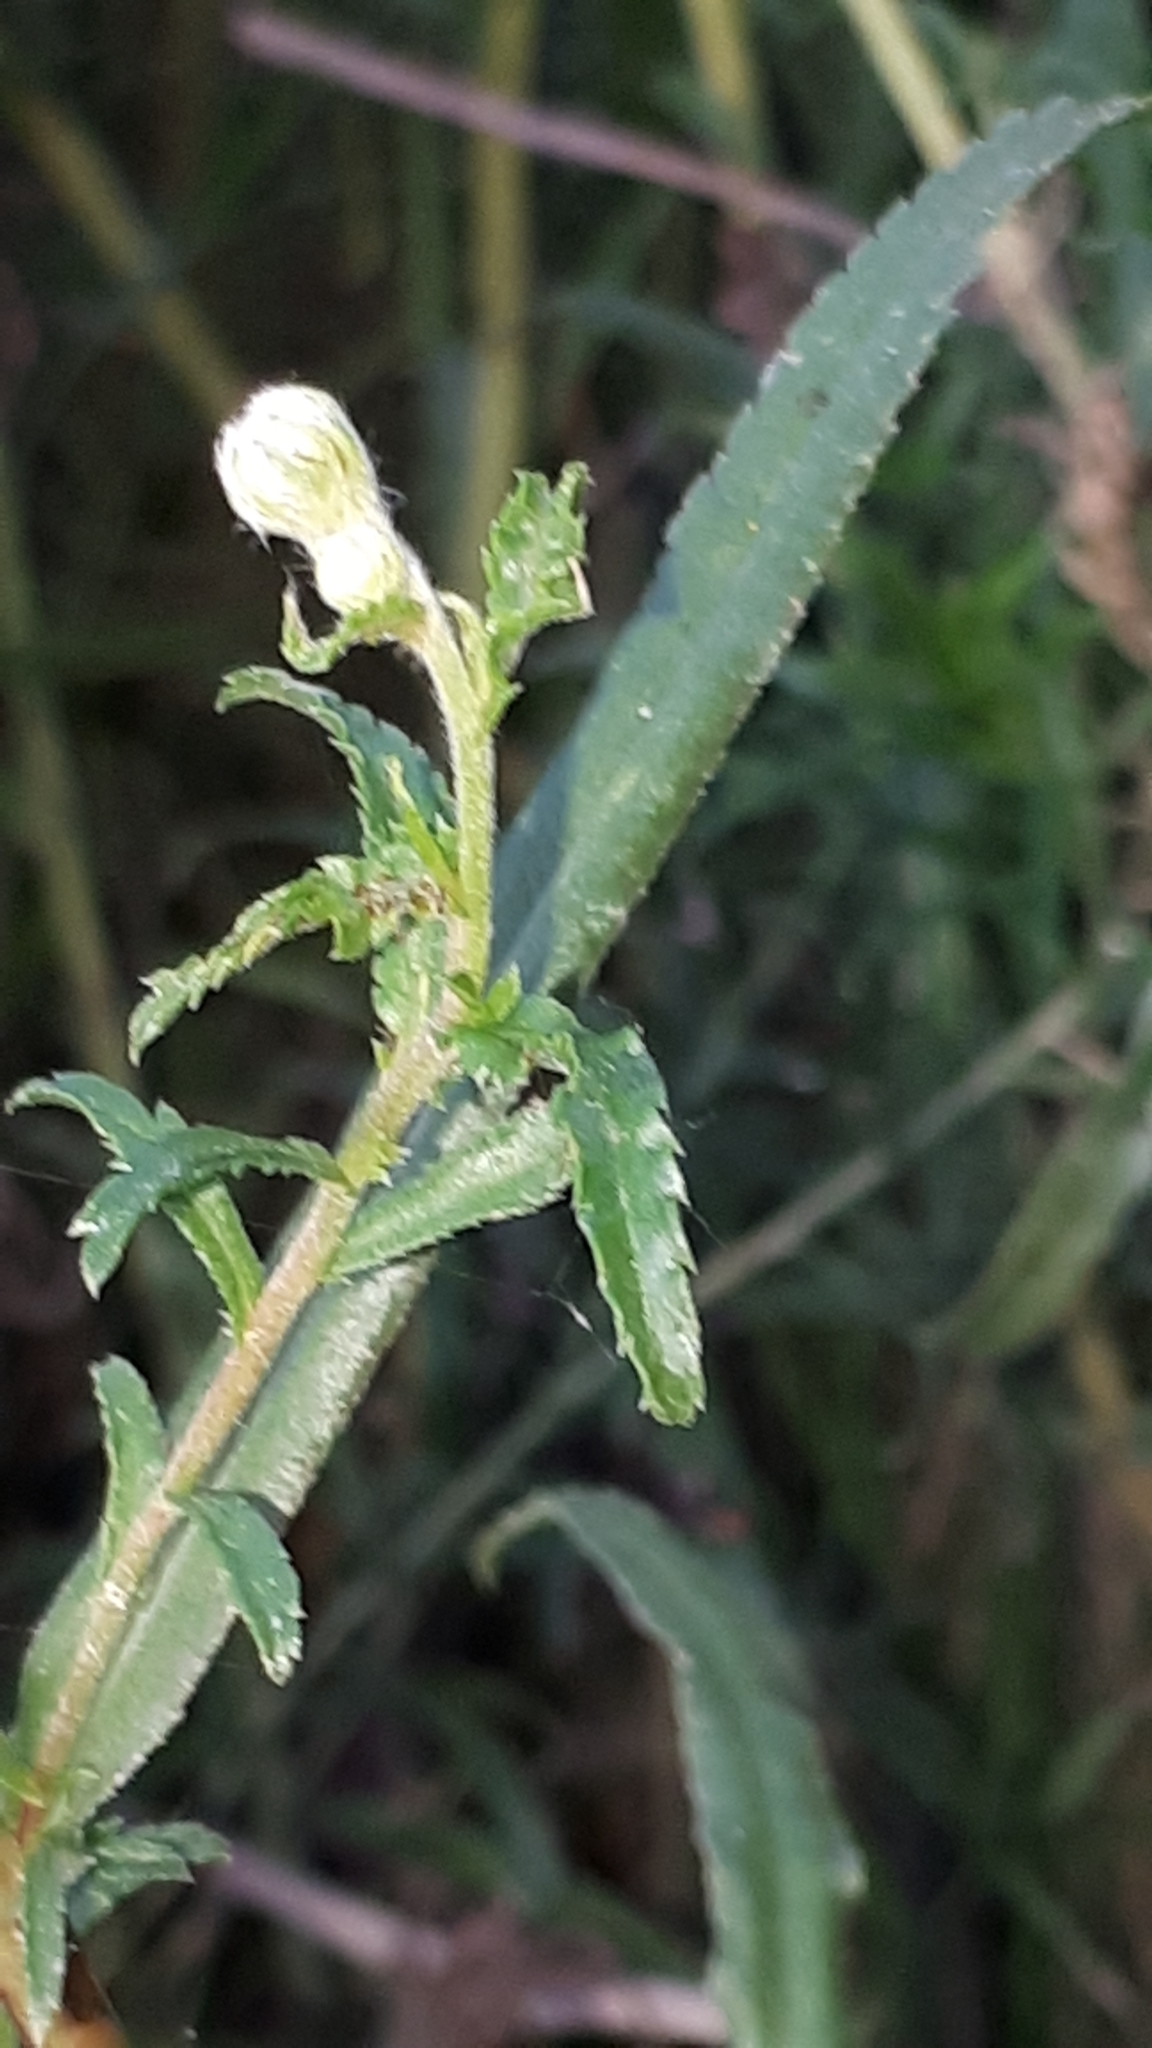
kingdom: Plantae
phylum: Tracheophyta
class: Magnoliopsida
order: Asterales
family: Asteraceae
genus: Achillea
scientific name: Achillea ptarmica
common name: Sneezeweed
